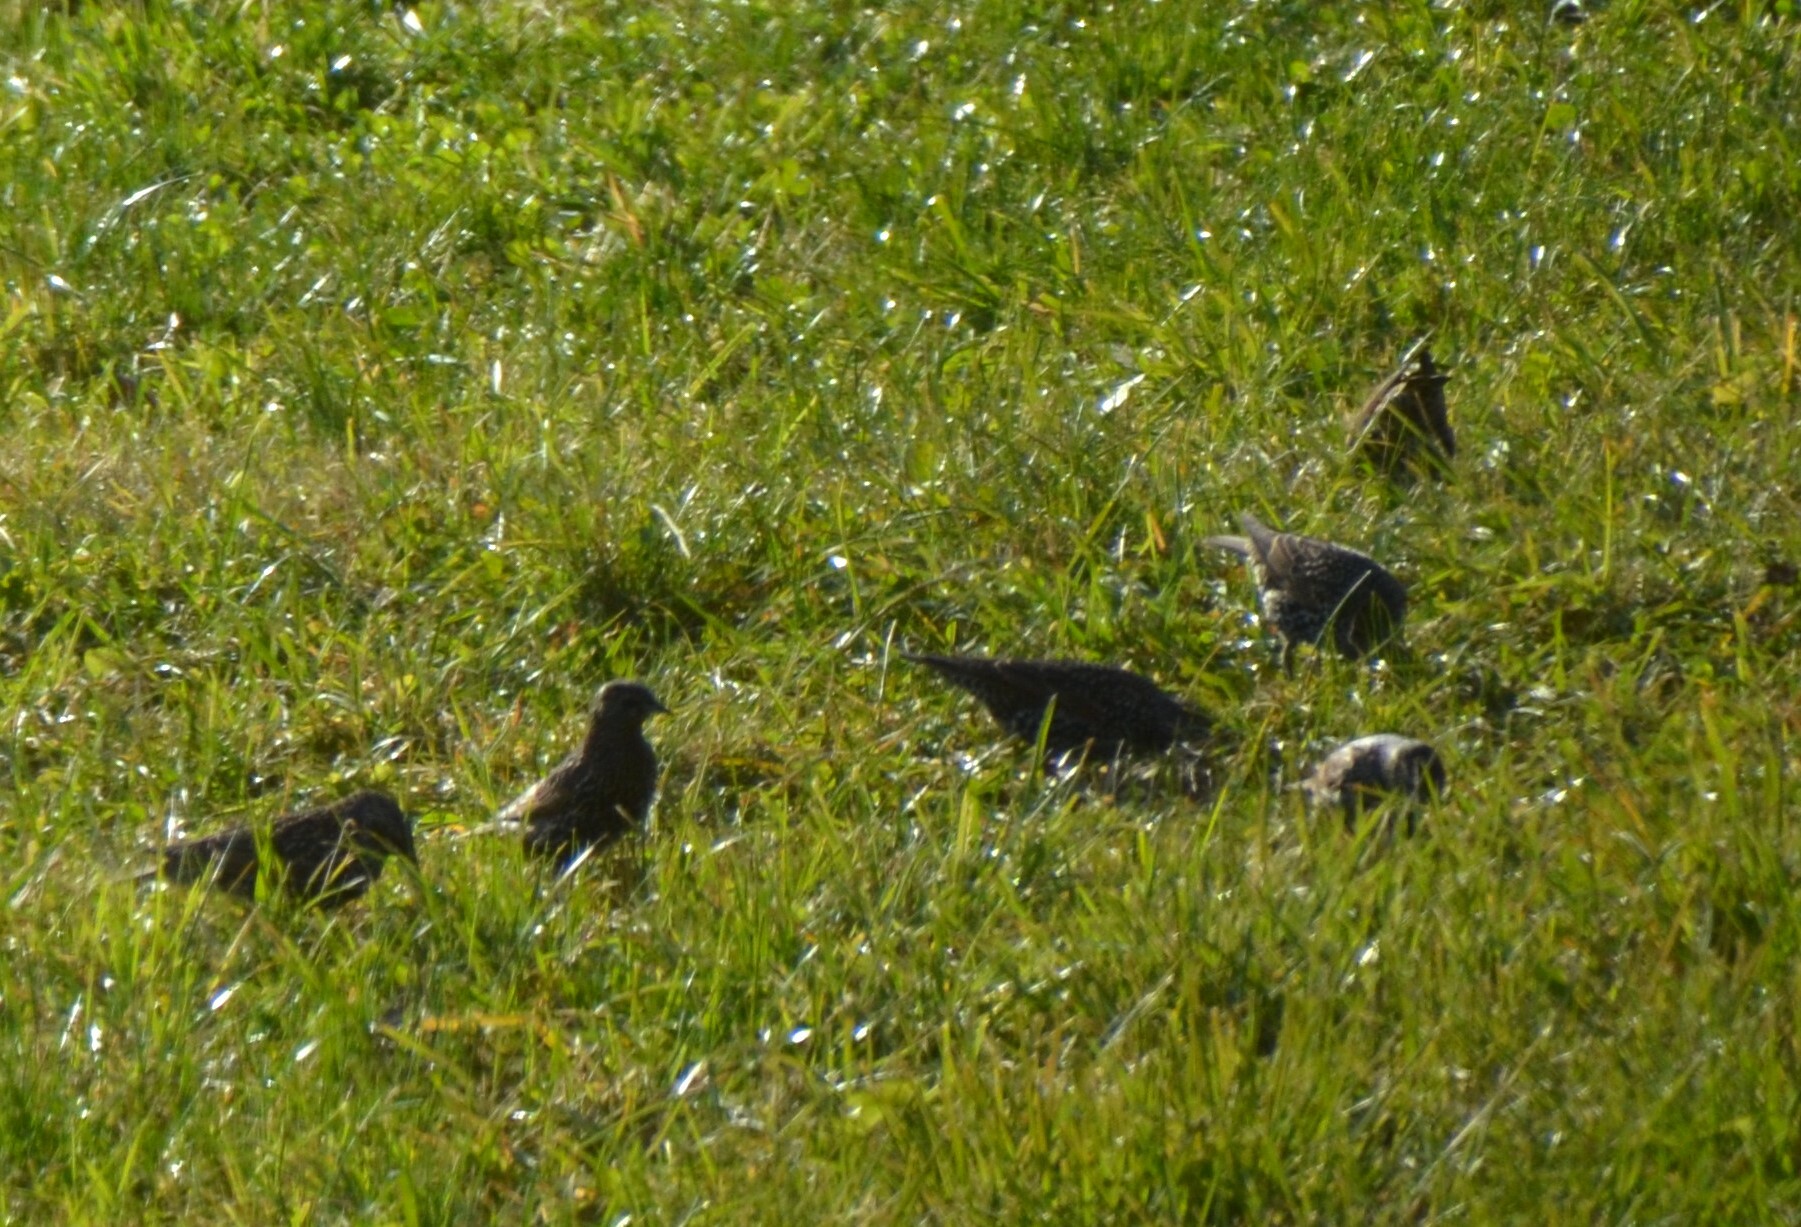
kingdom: Animalia
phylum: Chordata
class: Aves
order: Passeriformes
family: Sturnidae
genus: Sturnus
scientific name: Sturnus vulgaris
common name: Common starling
